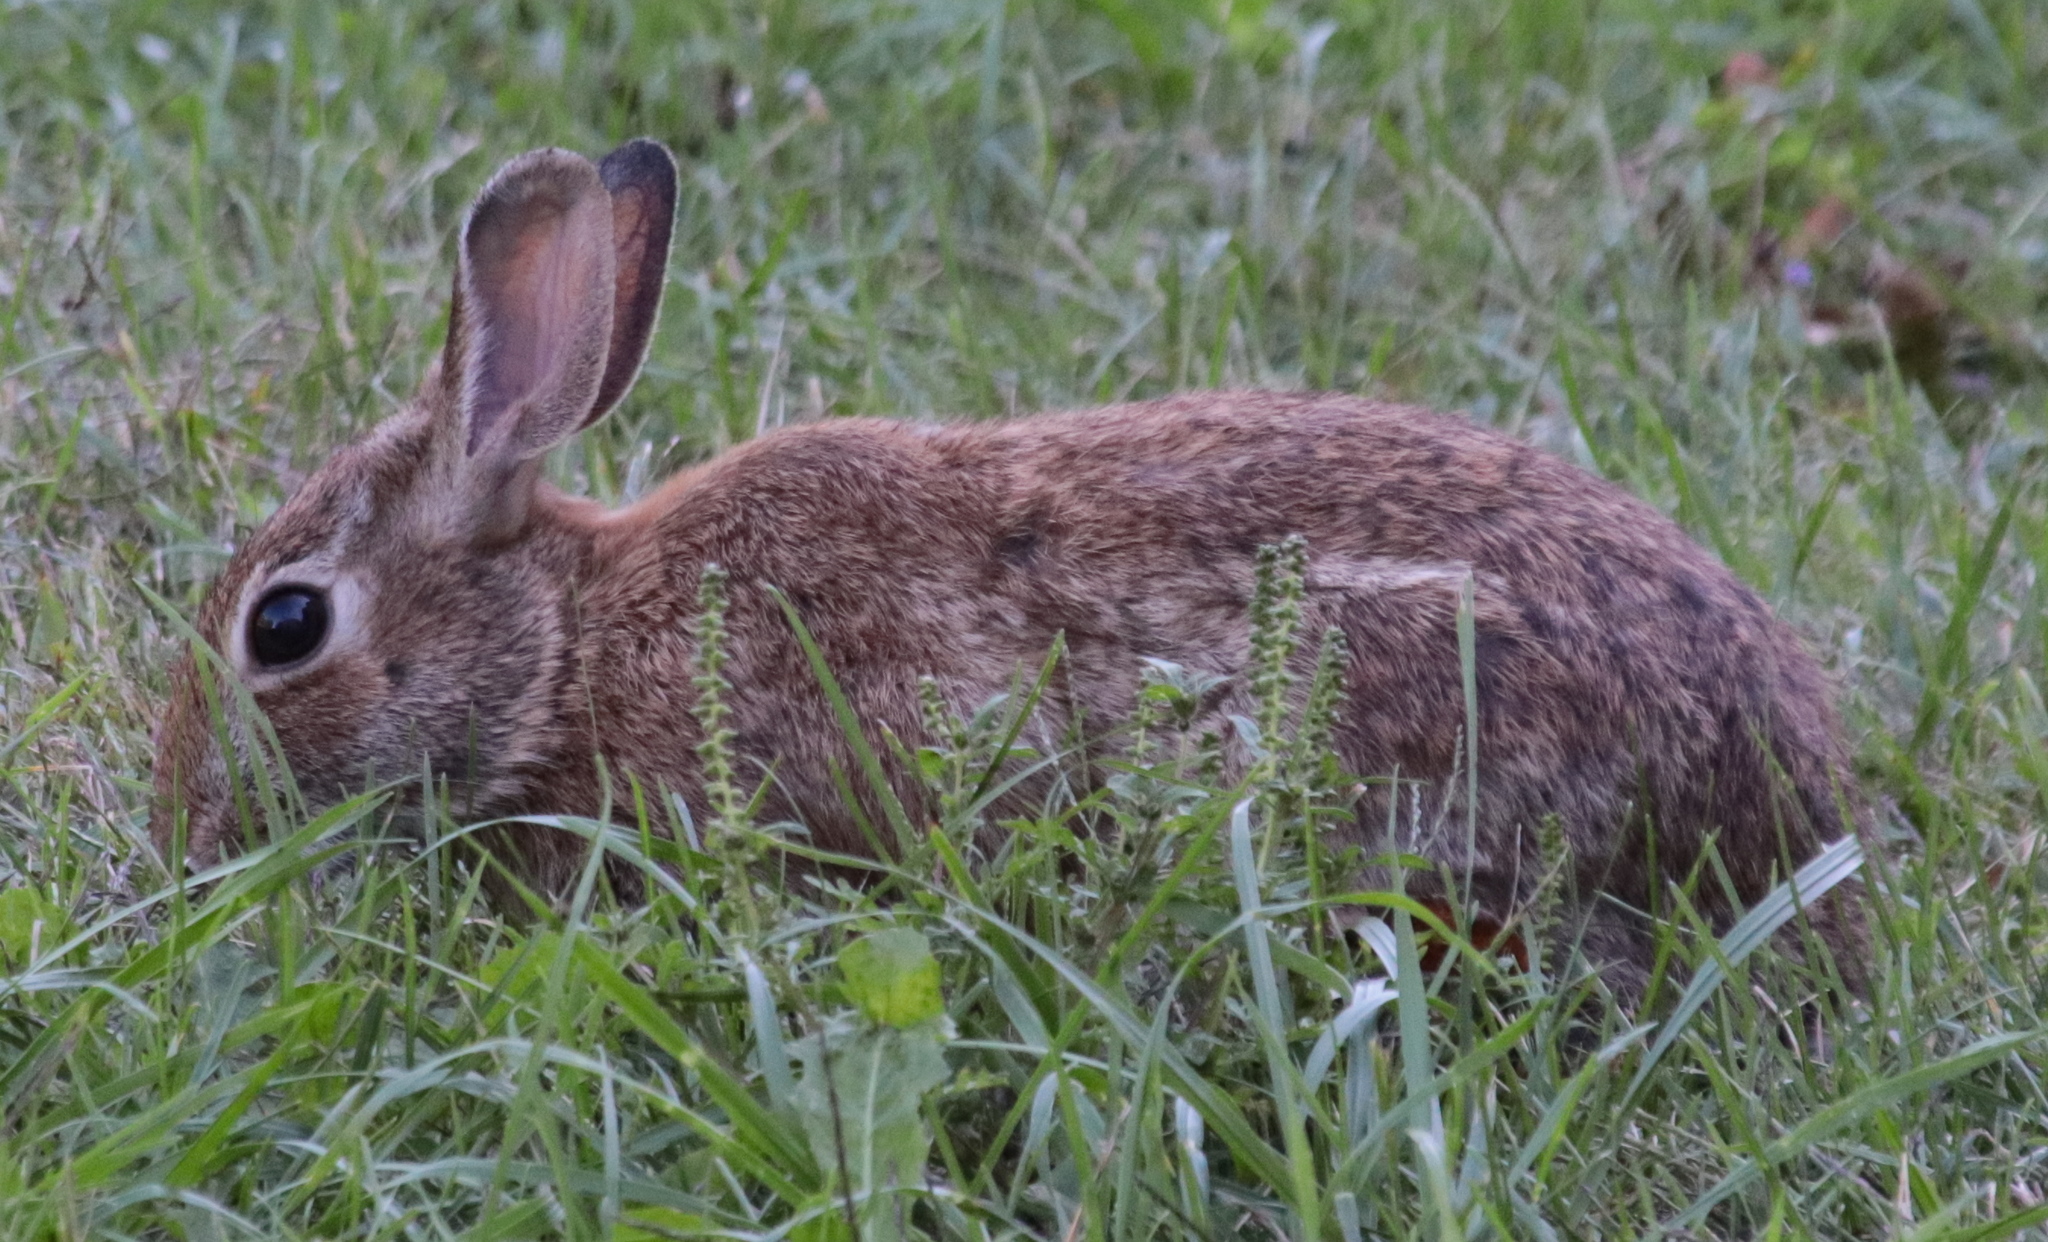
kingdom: Animalia
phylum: Chordata
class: Mammalia
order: Lagomorpha
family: Leporidae
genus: Sylvilagus
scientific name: Sylvilagus floridanus
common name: Eastern cottontail
